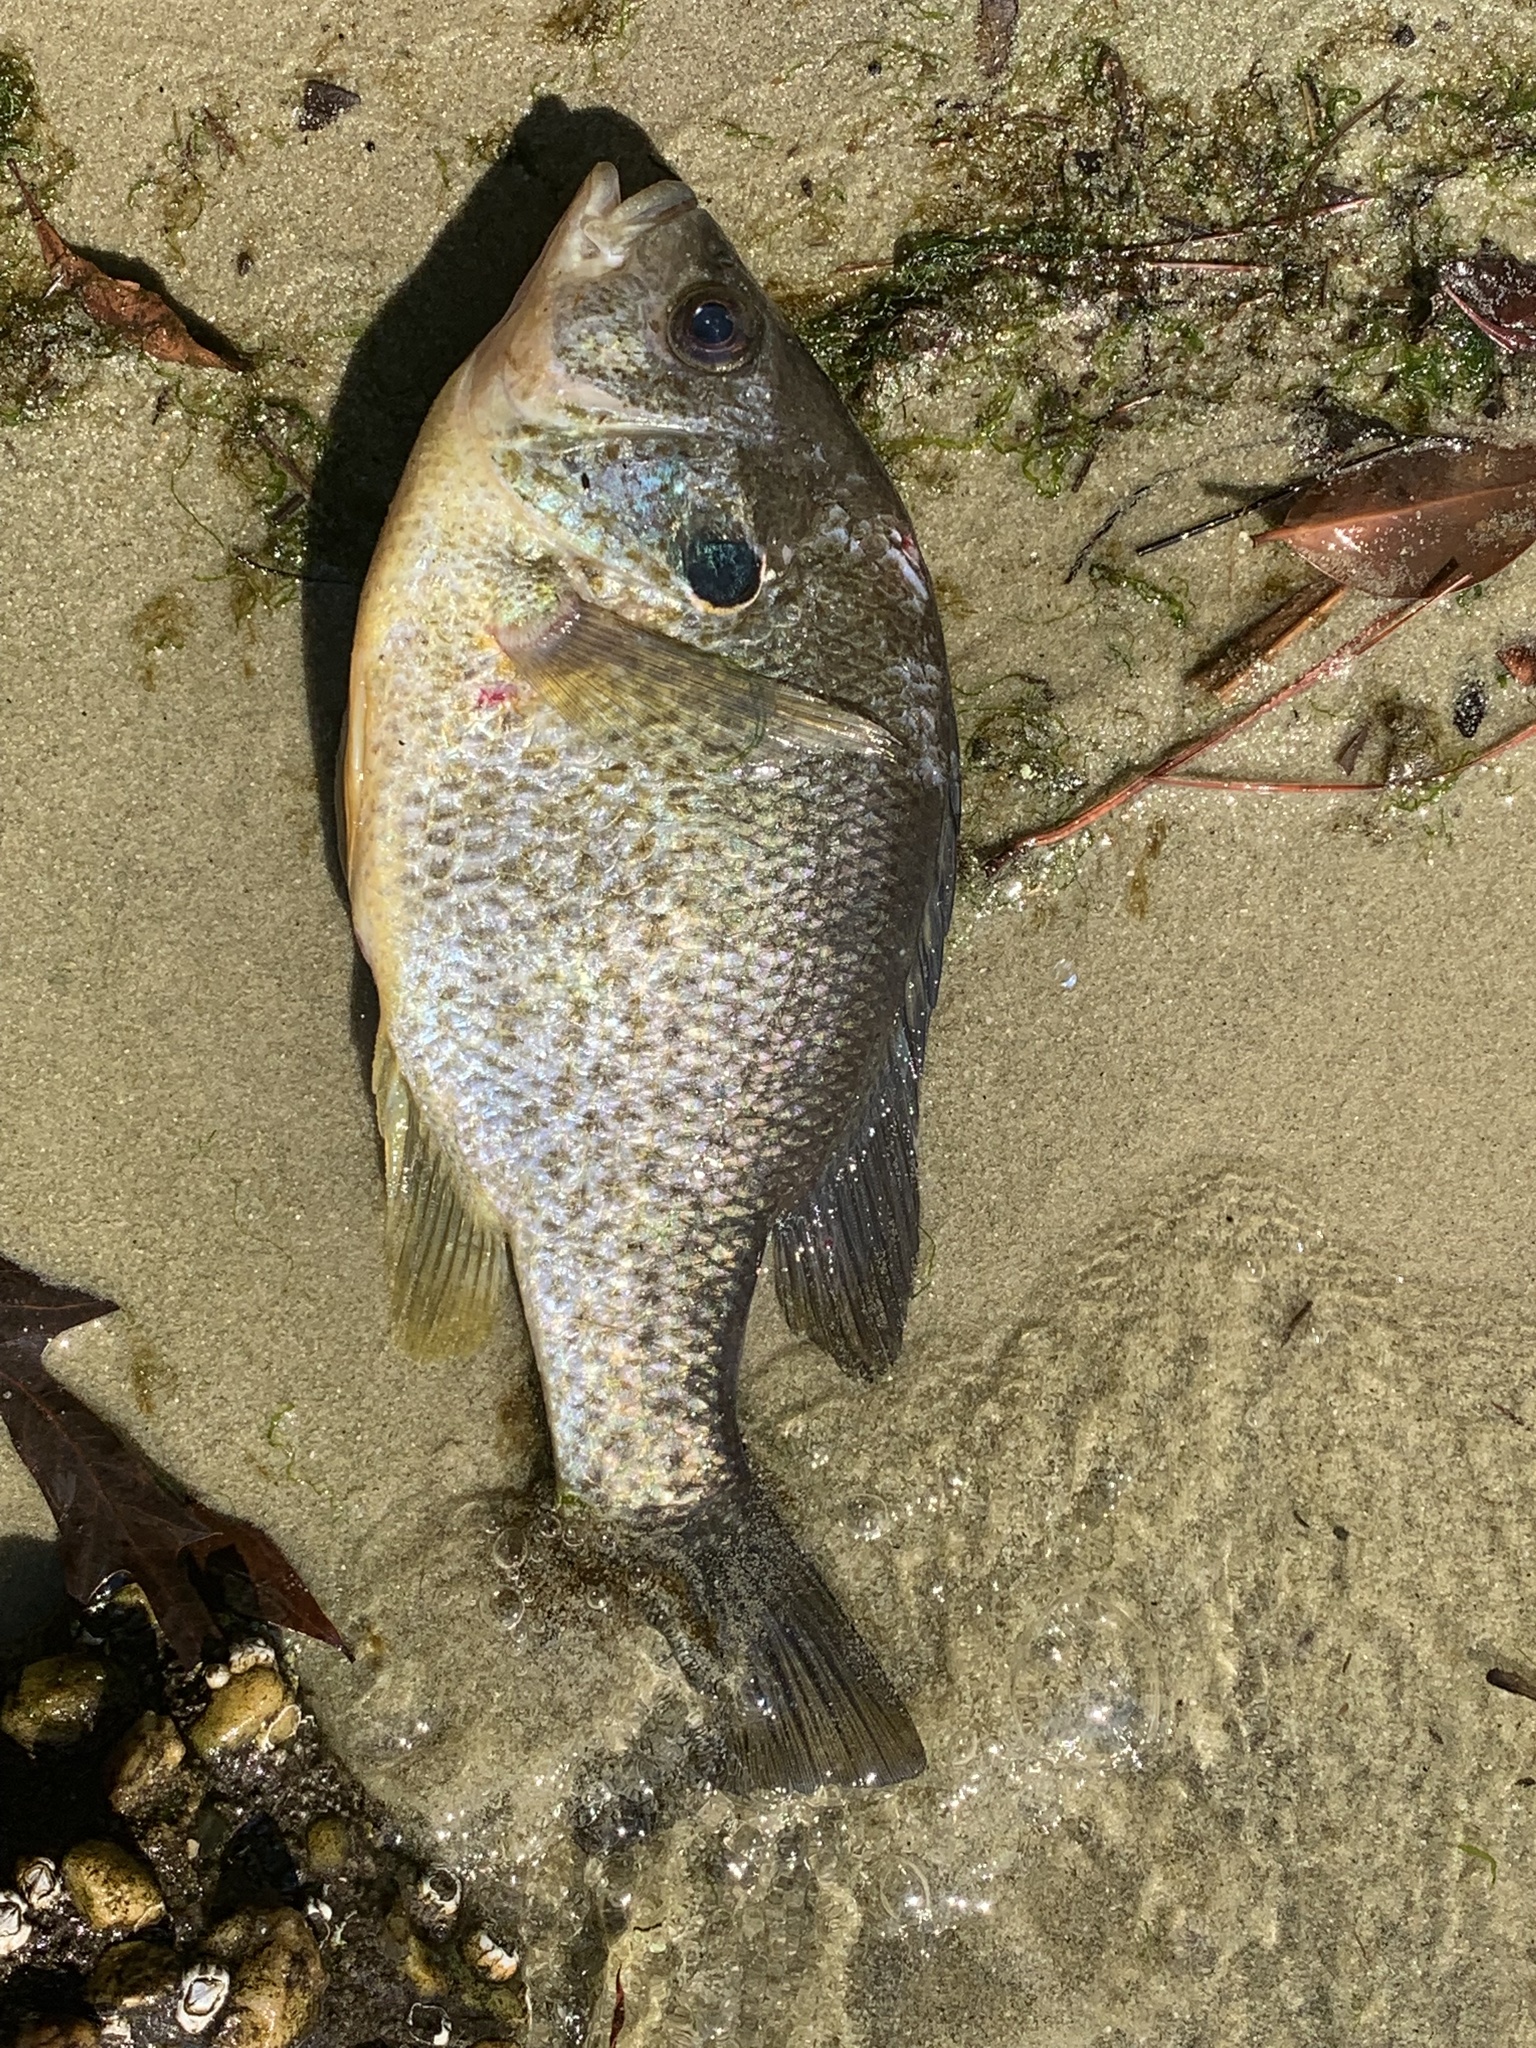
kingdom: Animalia
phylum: Chordata
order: Perciformes
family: Centrarchidae
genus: Lepomis
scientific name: Lepomis microlophus
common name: Redear sunfish
